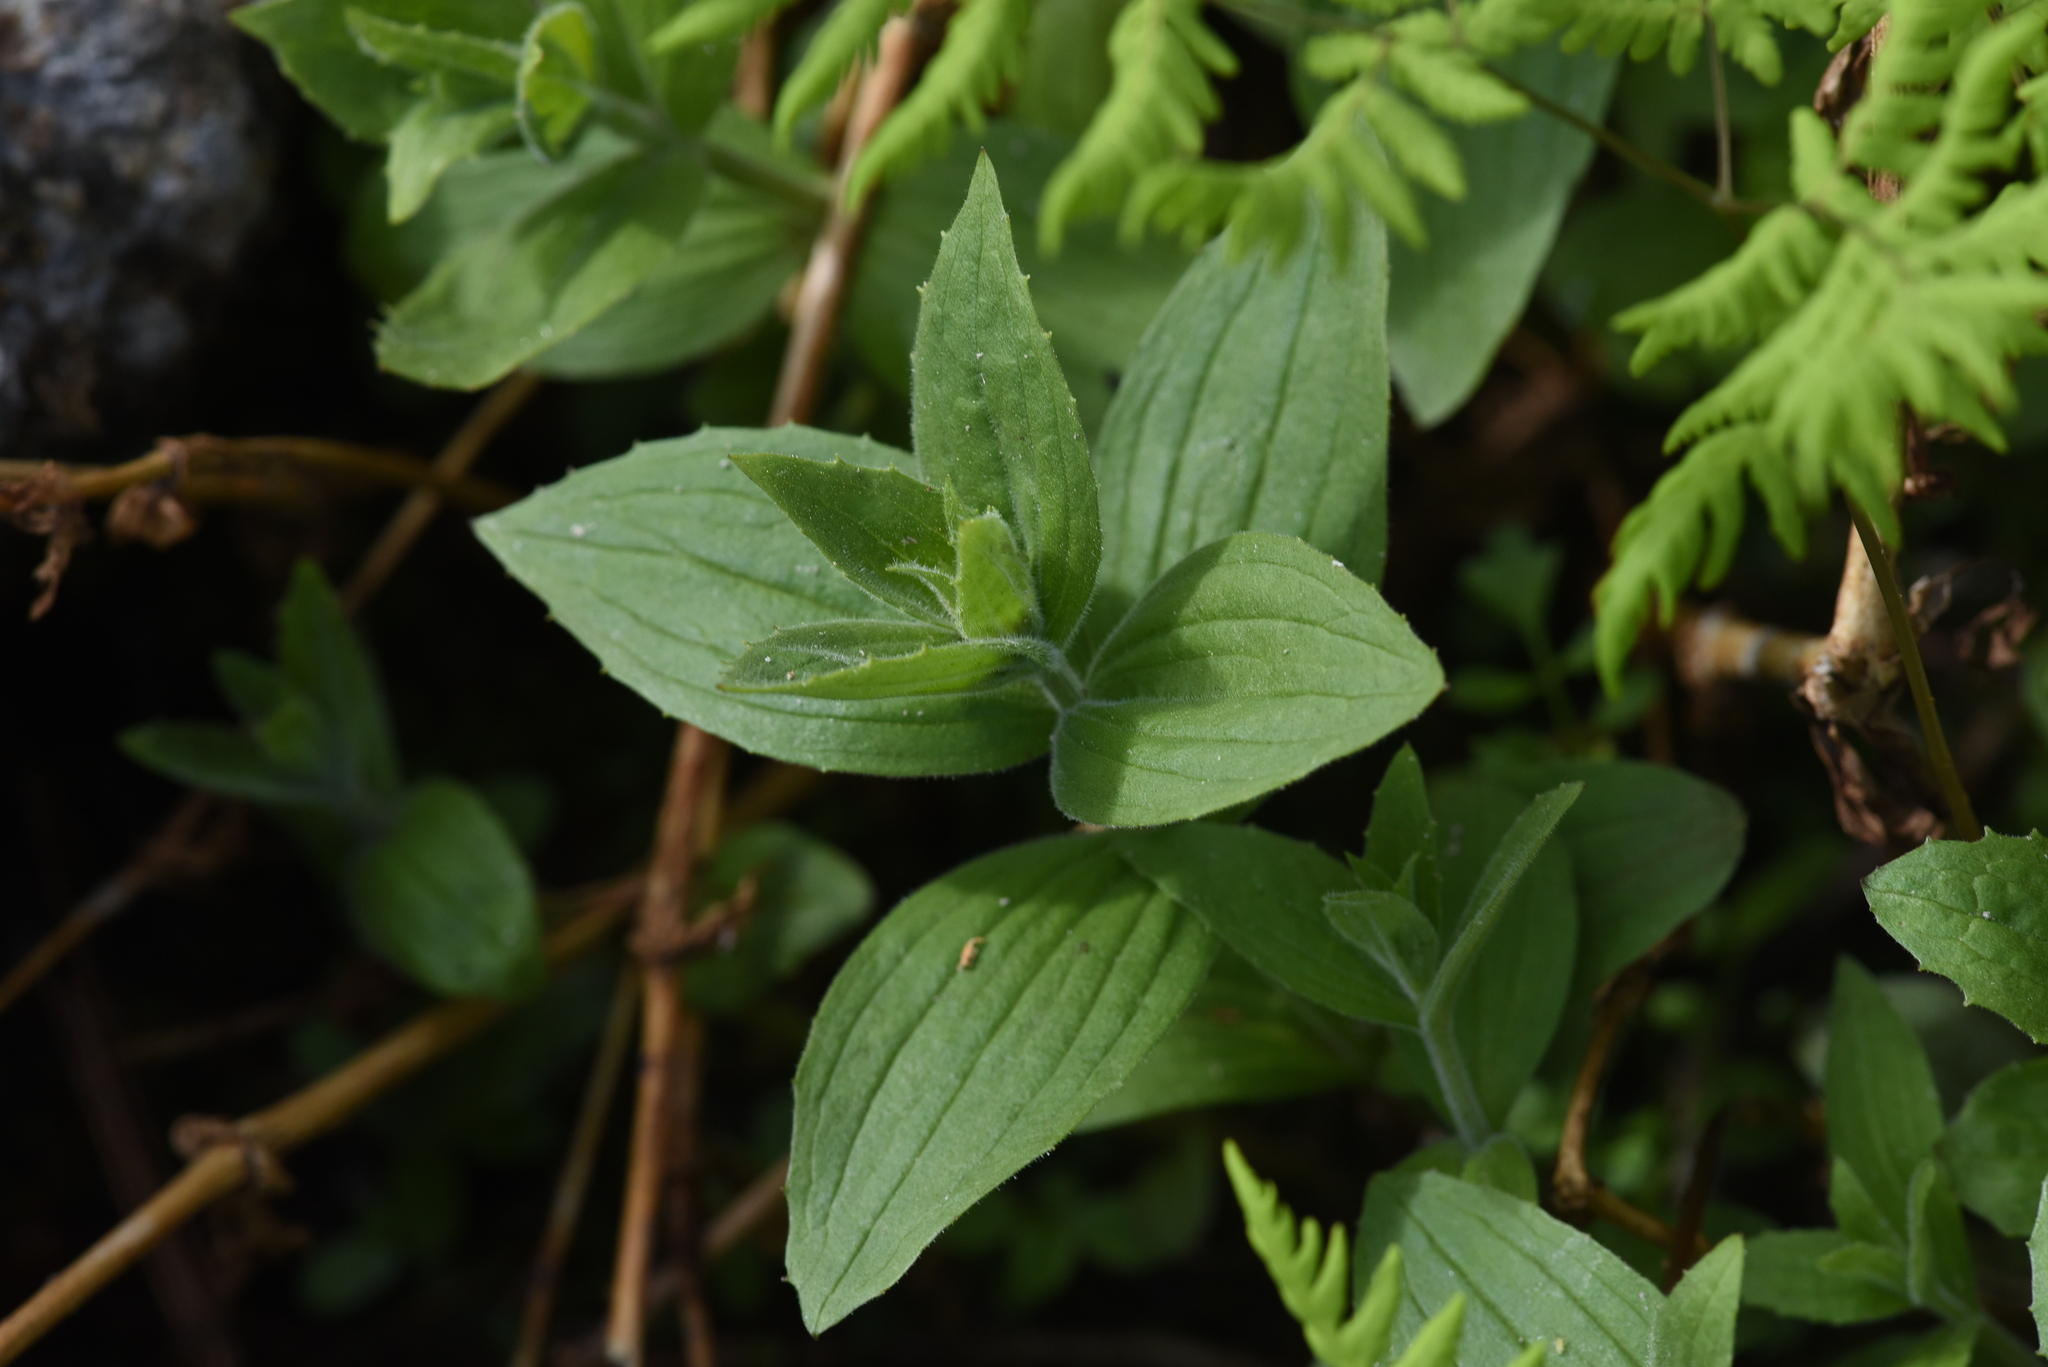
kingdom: Plantae
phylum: Tracheophyta
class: Magnoliopsida
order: Lamiales
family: Phrymaceae
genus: Erythranthe
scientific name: Erythranthe lewisii
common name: Lewis's monkey-flower
